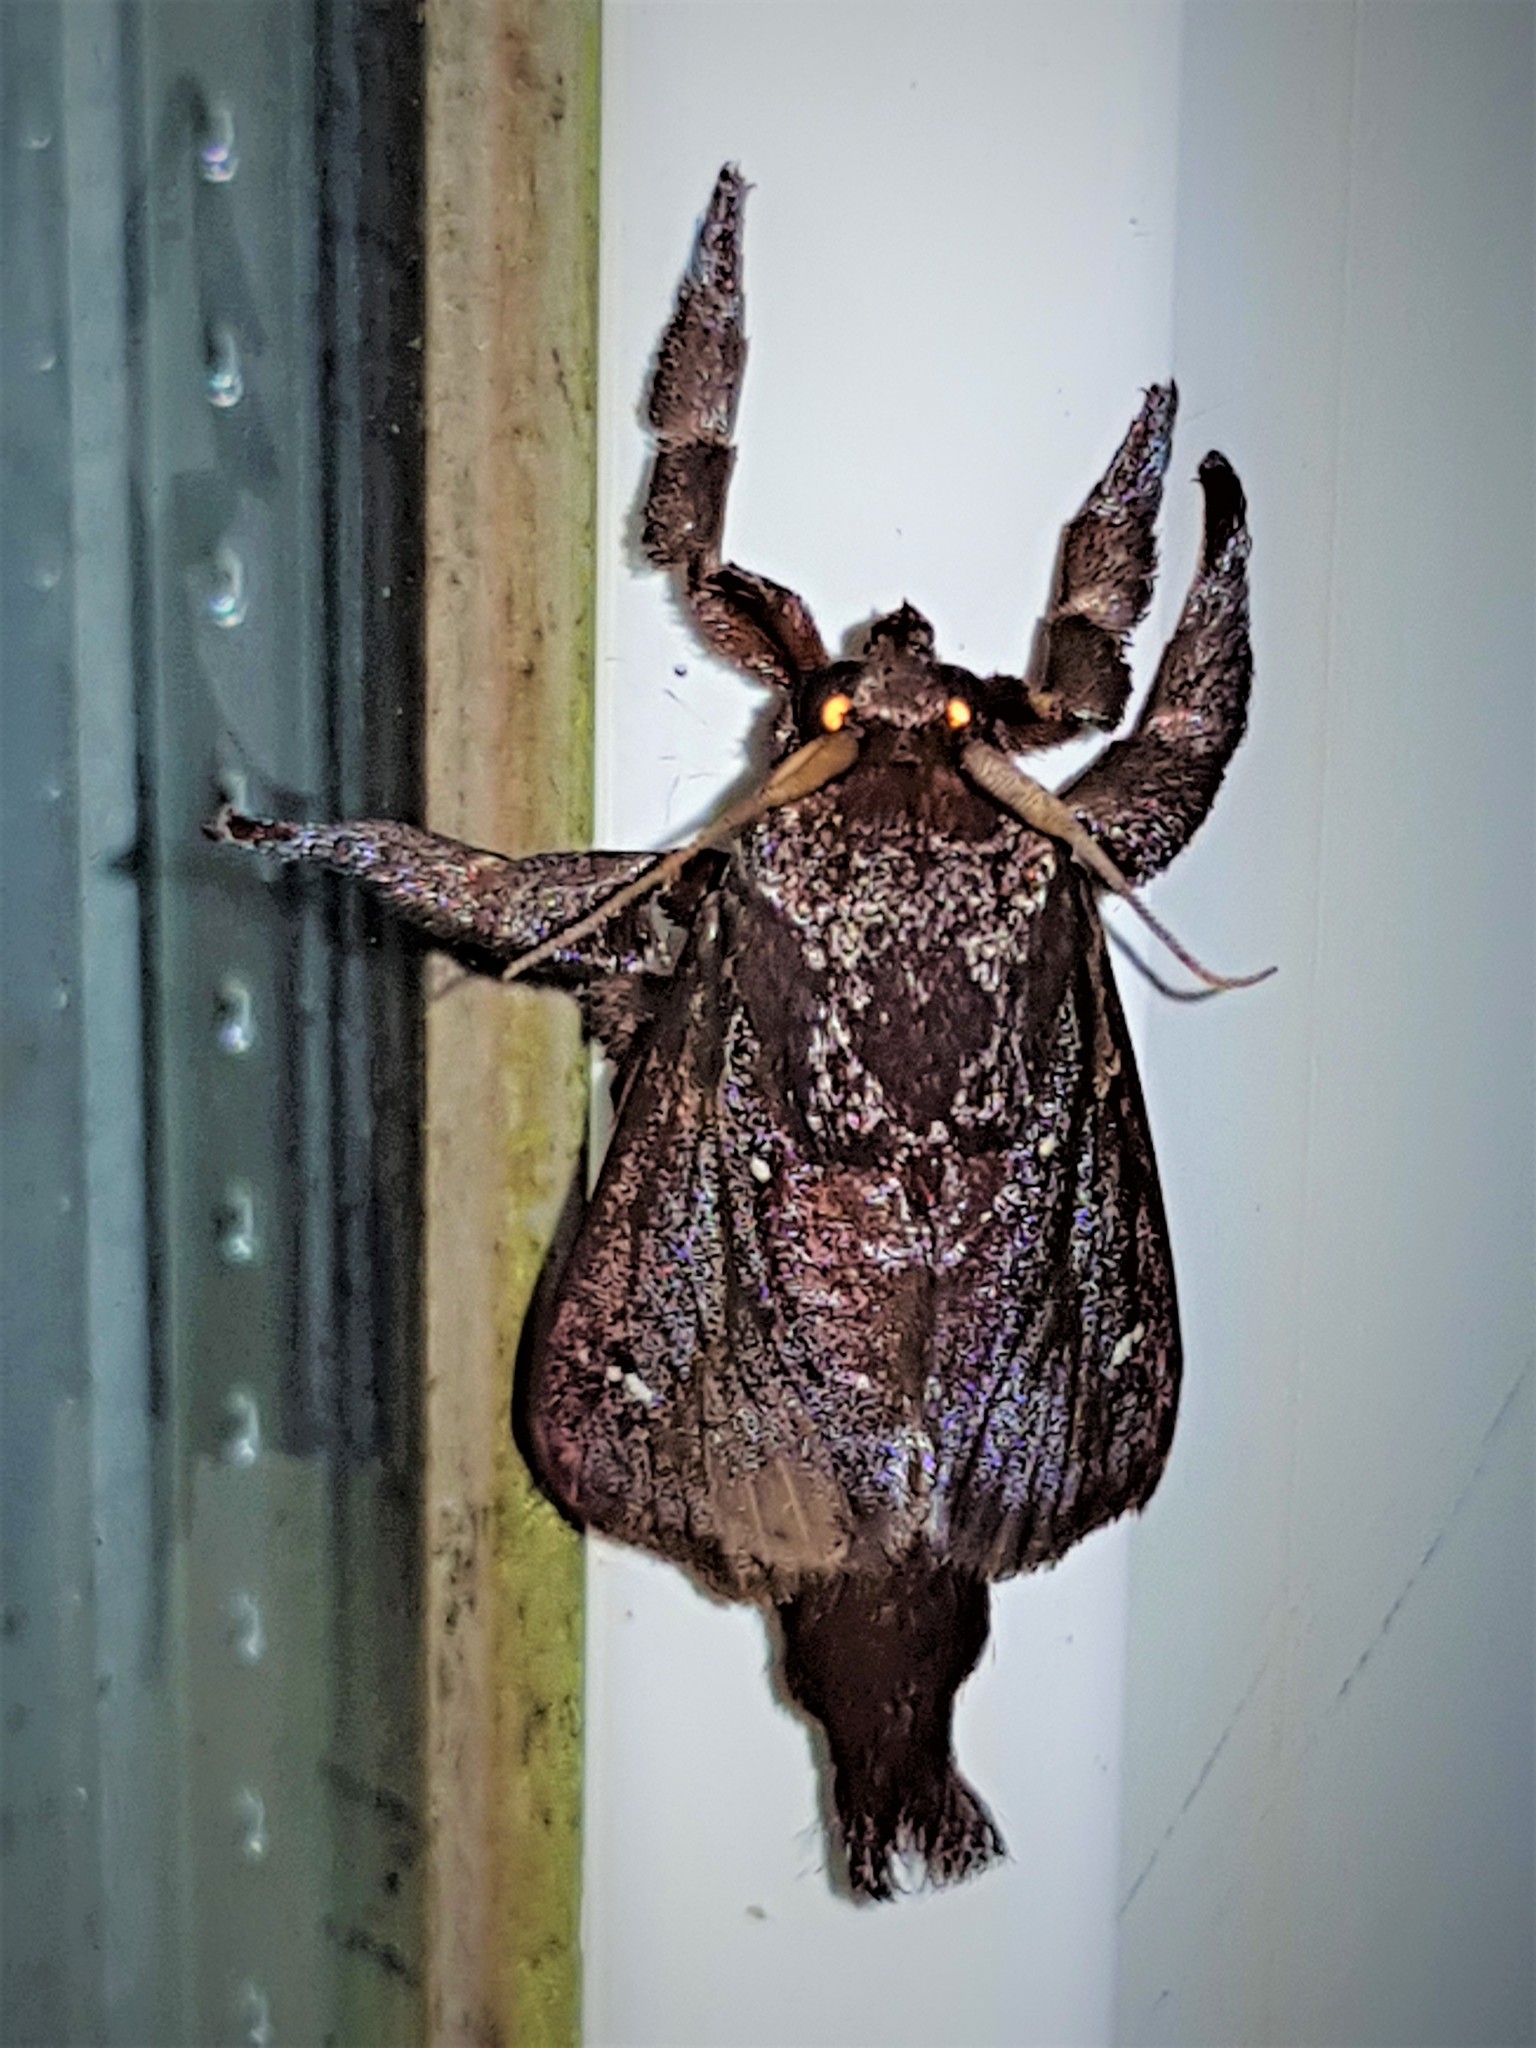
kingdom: Animalia
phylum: Arthropoda
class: Insecta
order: Lepidoptera
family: Limacodidae
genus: Sibine
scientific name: Sibine lophostigma
